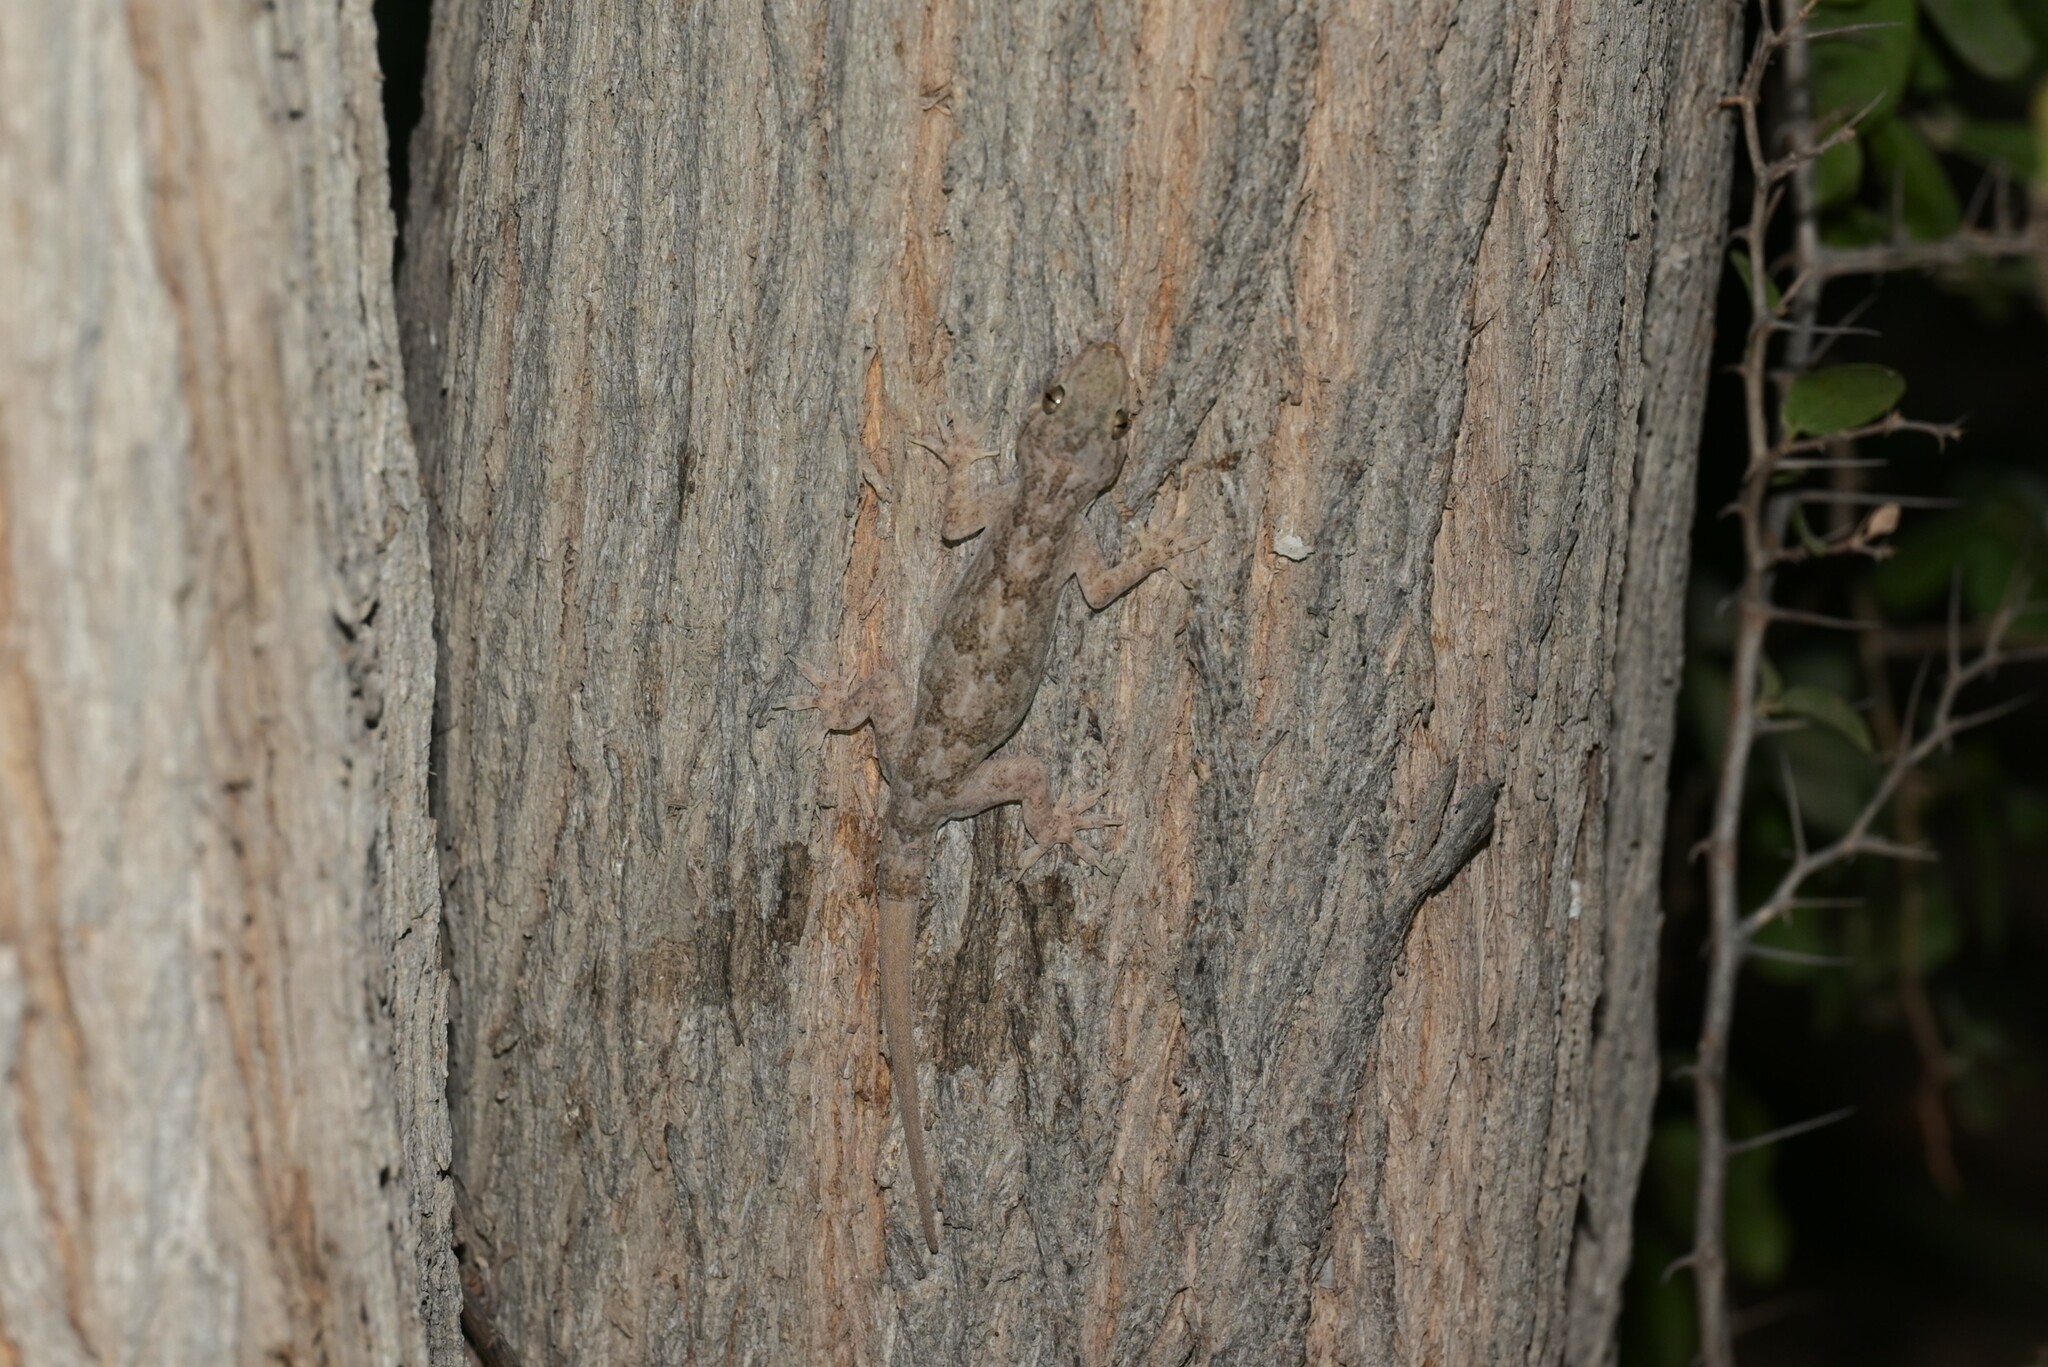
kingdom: Animalia
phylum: Chordata
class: Squamata
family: Gekkonidae
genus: Hemidactylus
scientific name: Hemidactylus flaviviridis
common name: Northern house gecko
